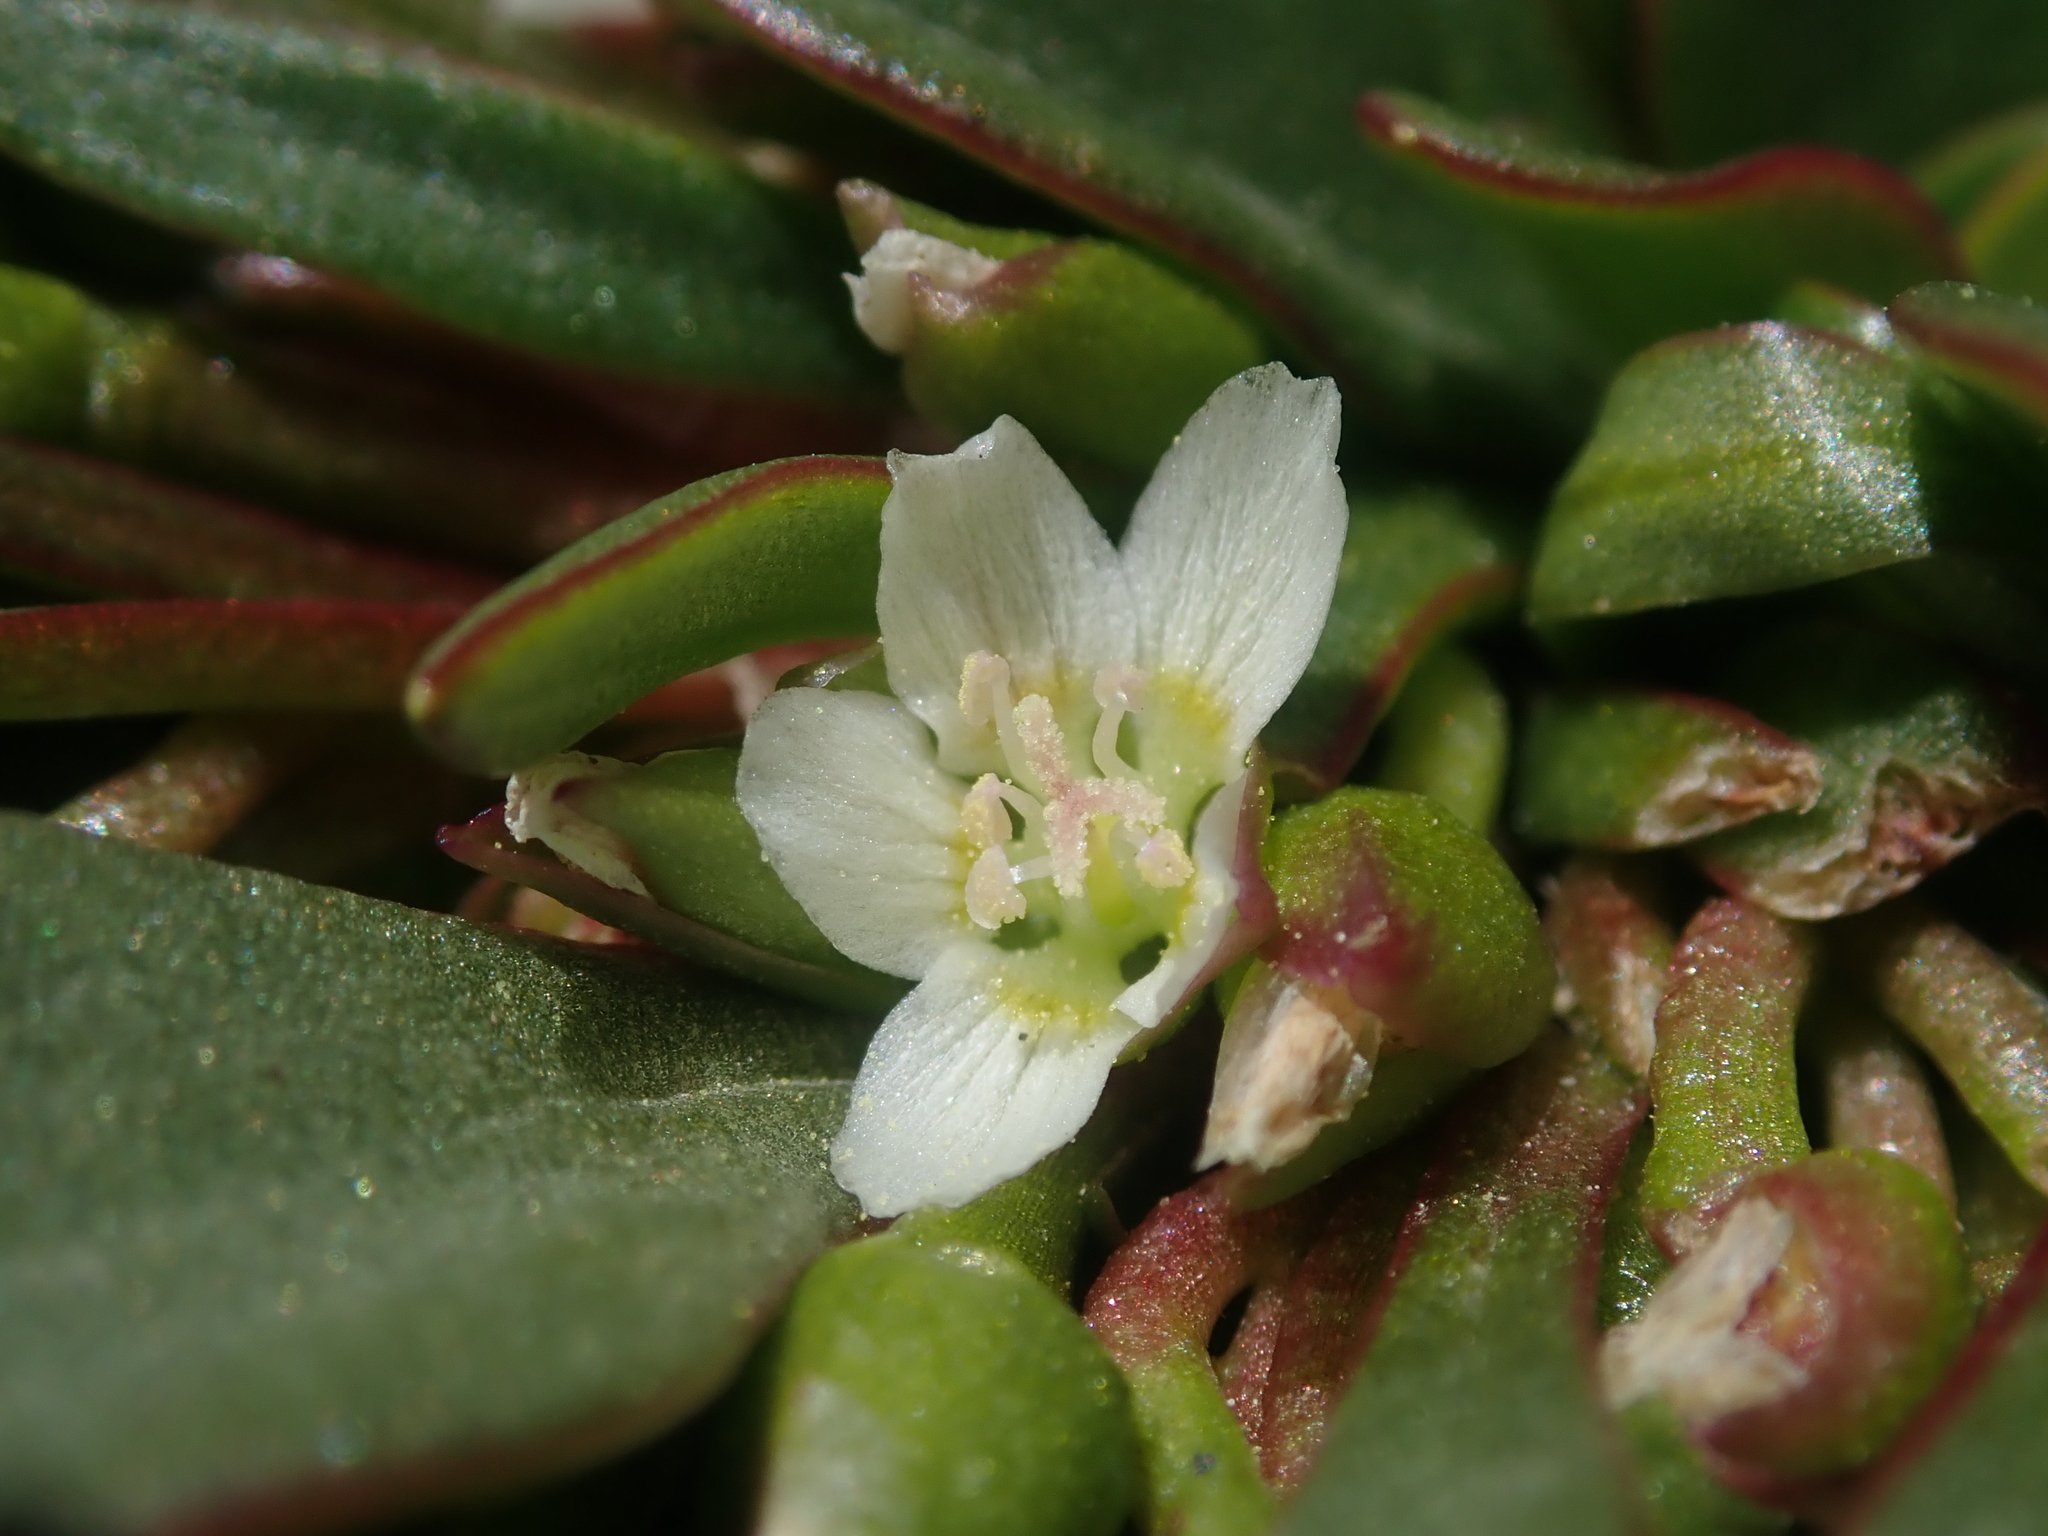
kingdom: Plantae
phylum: Tracheophyta
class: Magnoliopsida
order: Caryophyllales
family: Montiaceae
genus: Claytonia
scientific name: Claytonia megarhiza
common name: Alpine spring beauty
